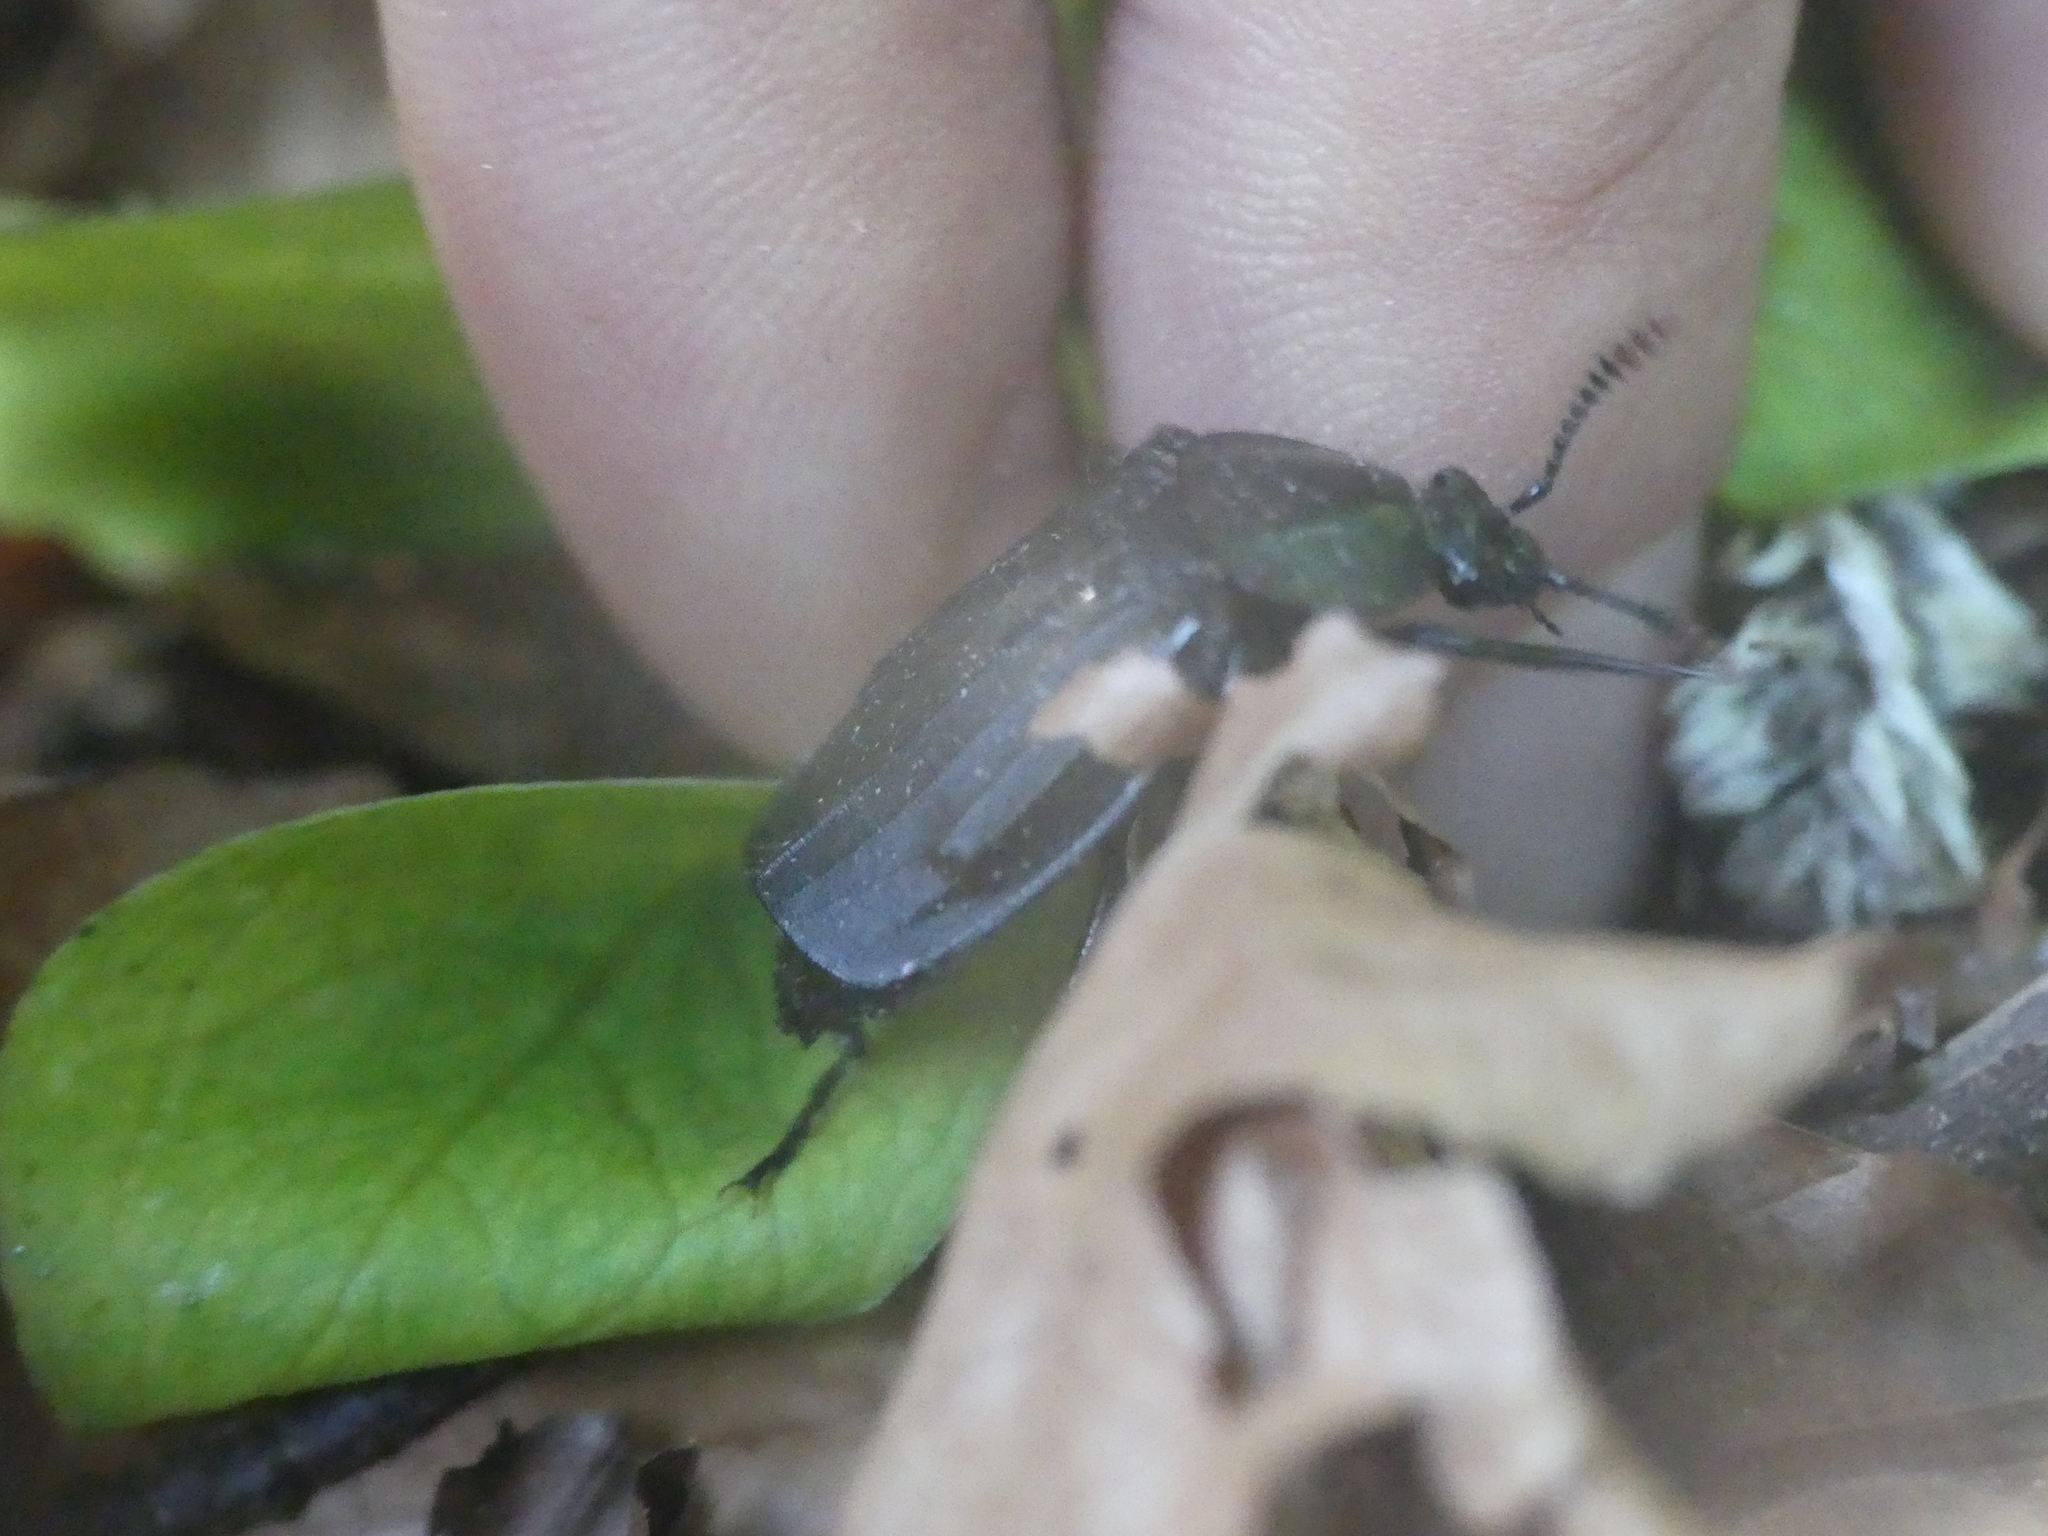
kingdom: Animalia
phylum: Arthropoda
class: Insecta
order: Coleoptera
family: Staphylinidae
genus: Necrodes
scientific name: Necrodes littoralis
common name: Shore sexton beetle
